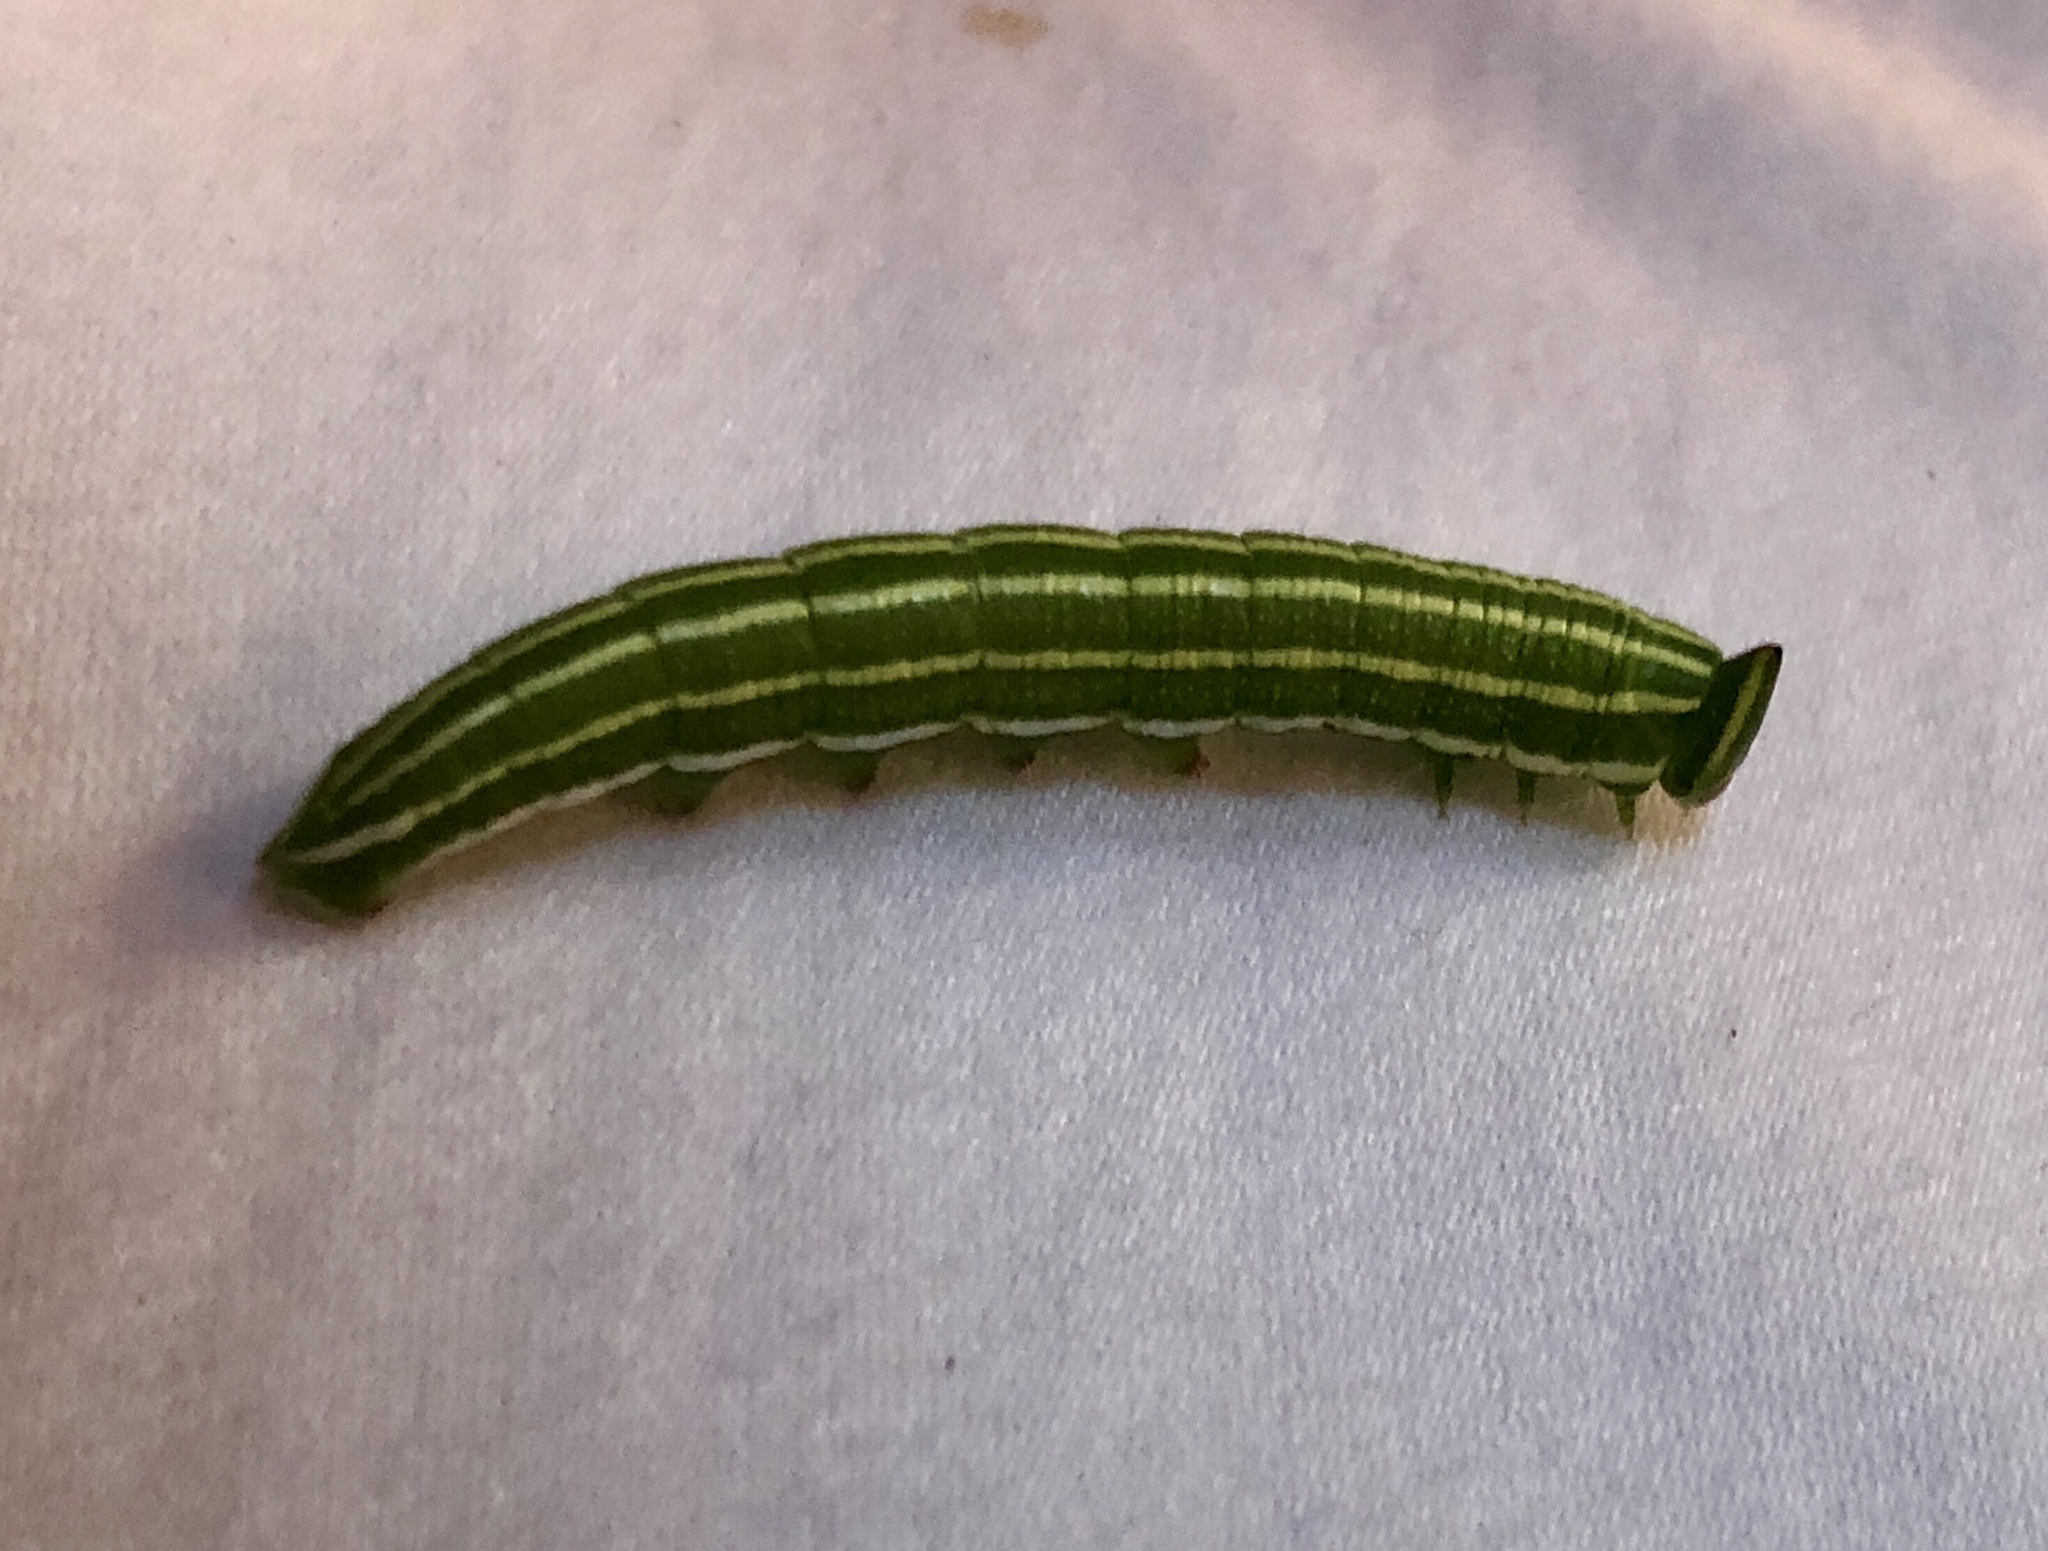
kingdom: Animalia
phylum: Arthropoda
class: Insecta
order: Lepidoptera
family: Sphingidae
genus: Lapara
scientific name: Lapara bombycoides
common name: Northern pine sphinx
